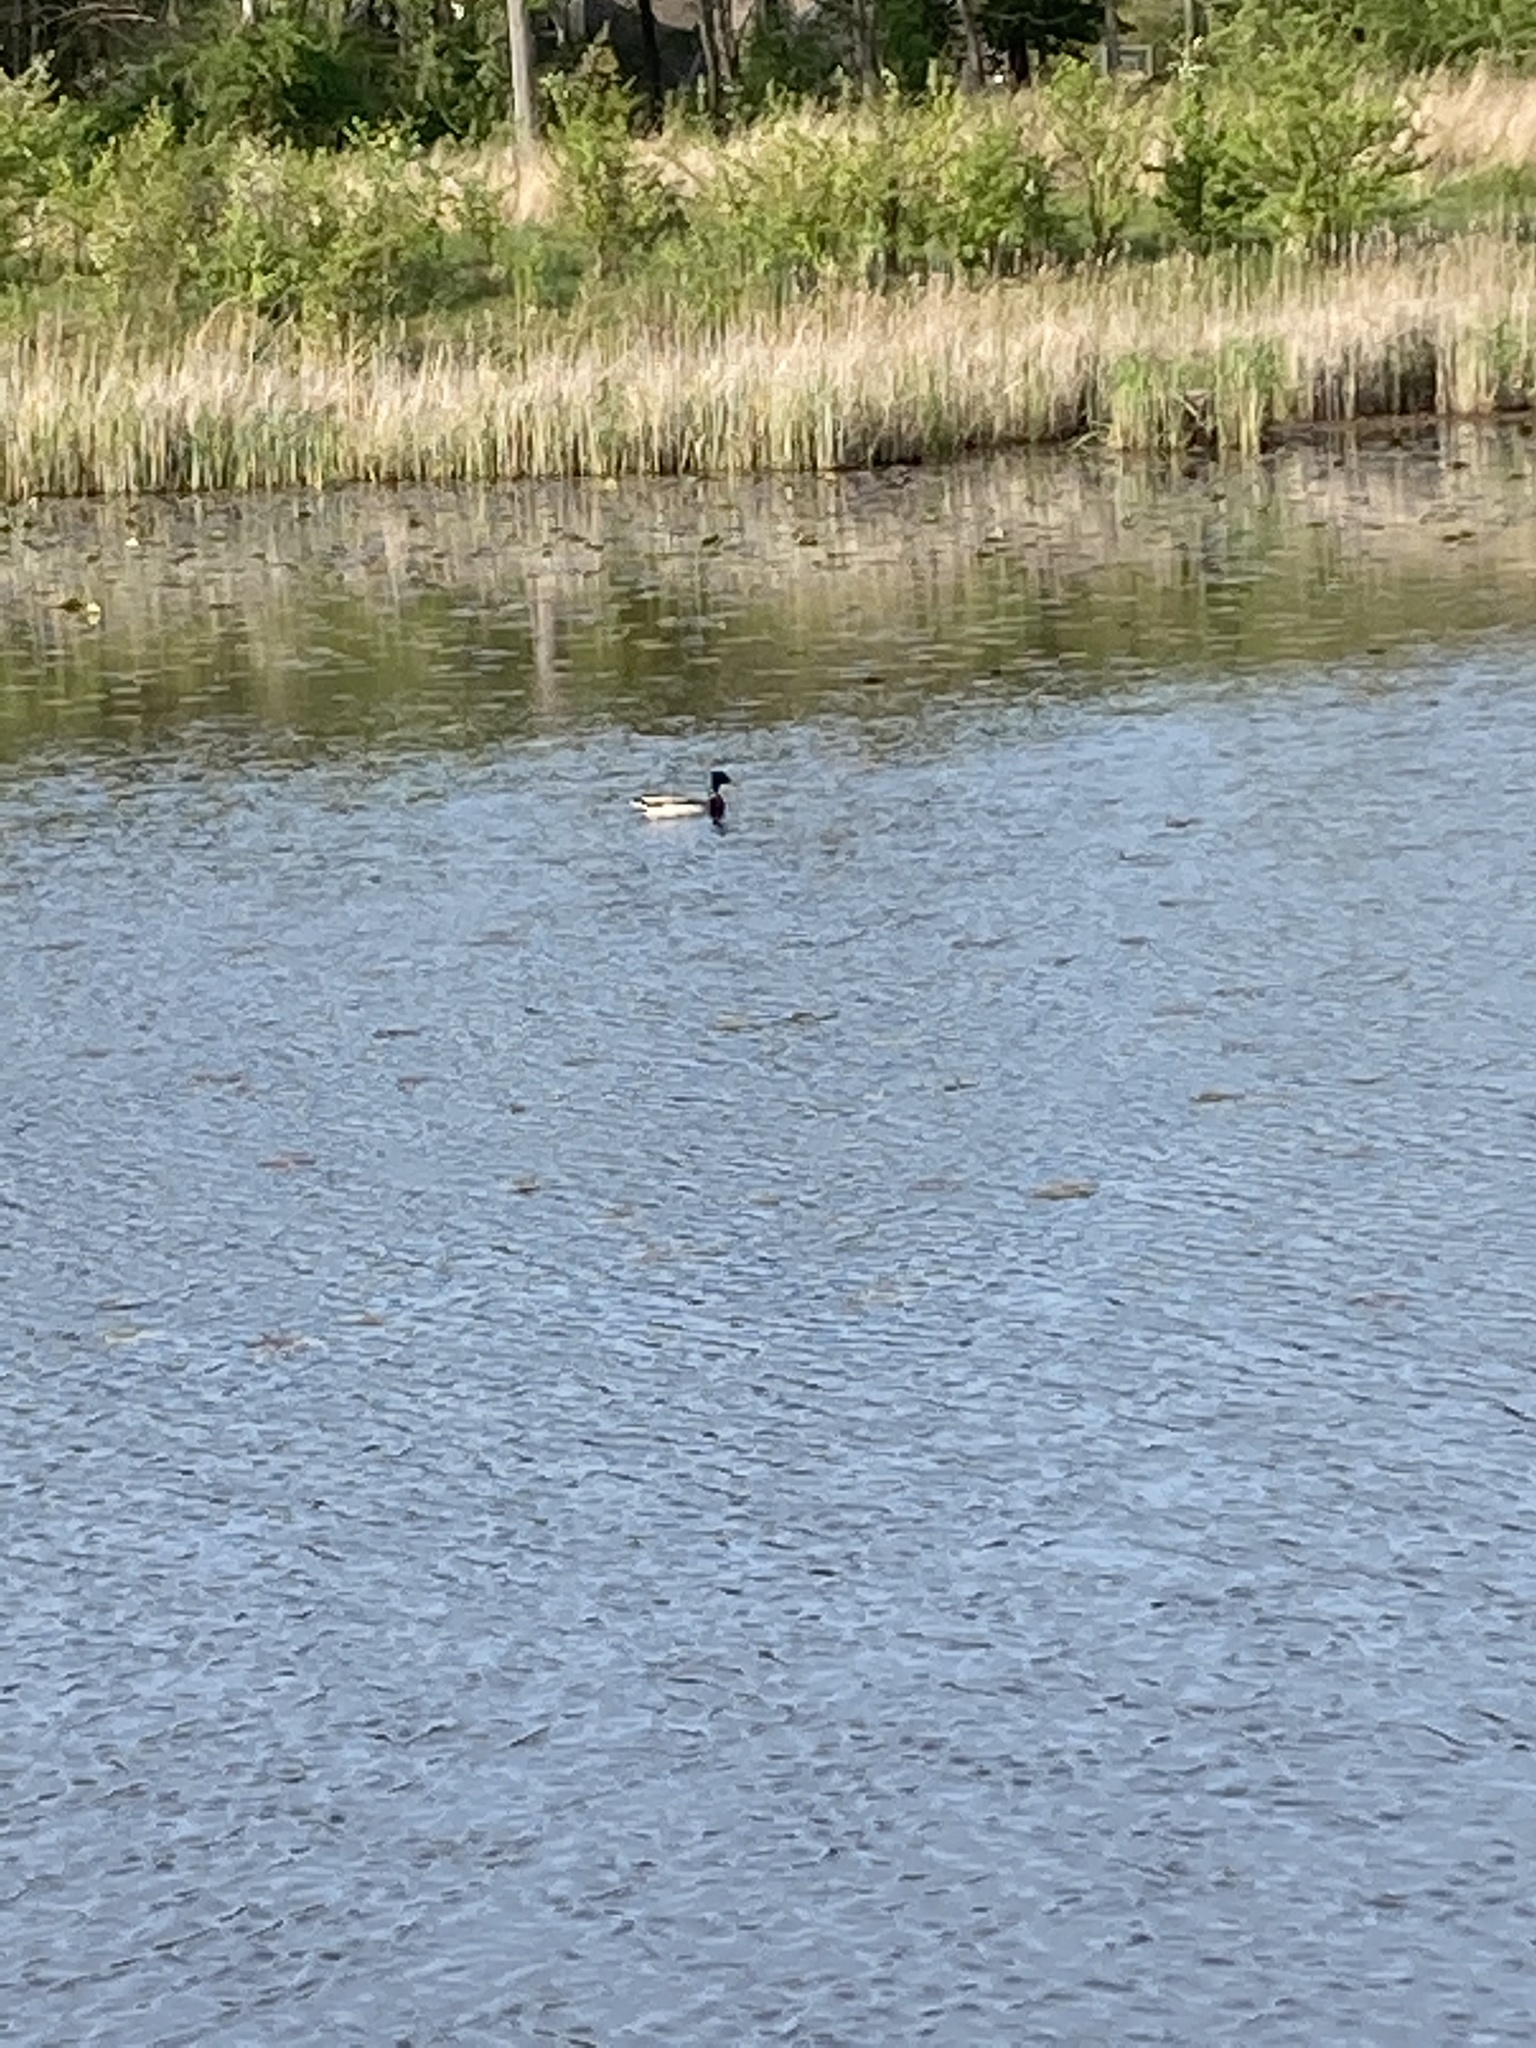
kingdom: Animalia
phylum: Chordata
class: Aves
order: Anseriformes
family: Anatidae
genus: Anas
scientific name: Anas platyrhynchos
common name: Mallard
